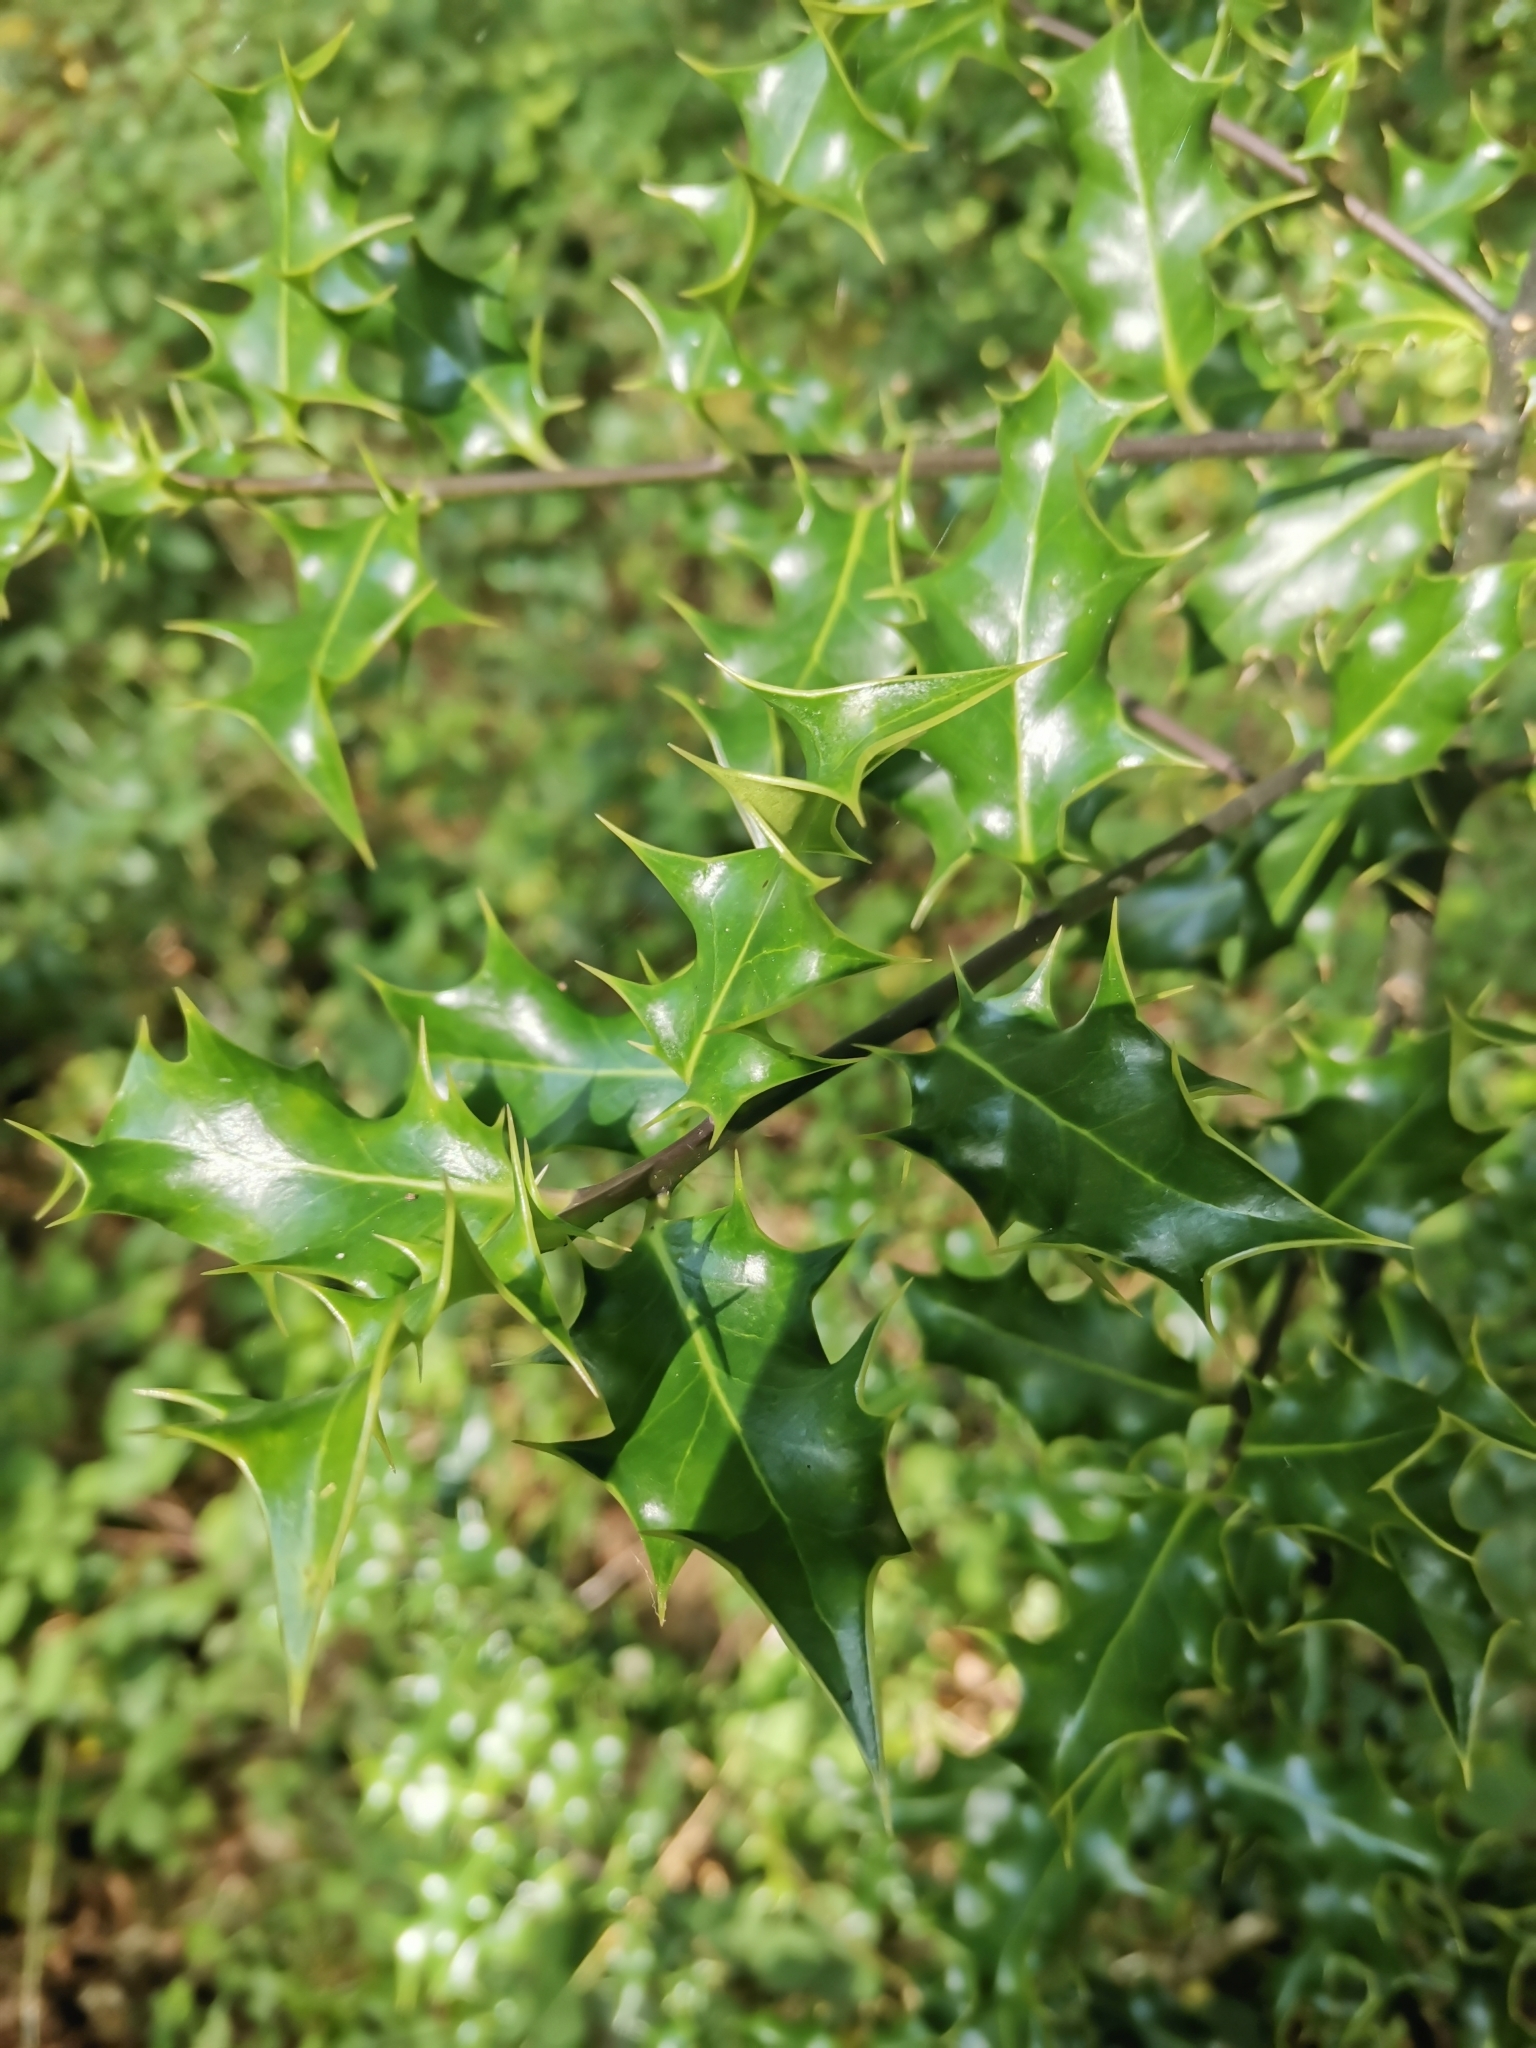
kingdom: Plantae
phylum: Tracheophyta
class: Magnoliopsida
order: Aquifoliales
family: Aquifoliaceae
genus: Ilex
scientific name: Ilex aquifolium
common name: English holly
